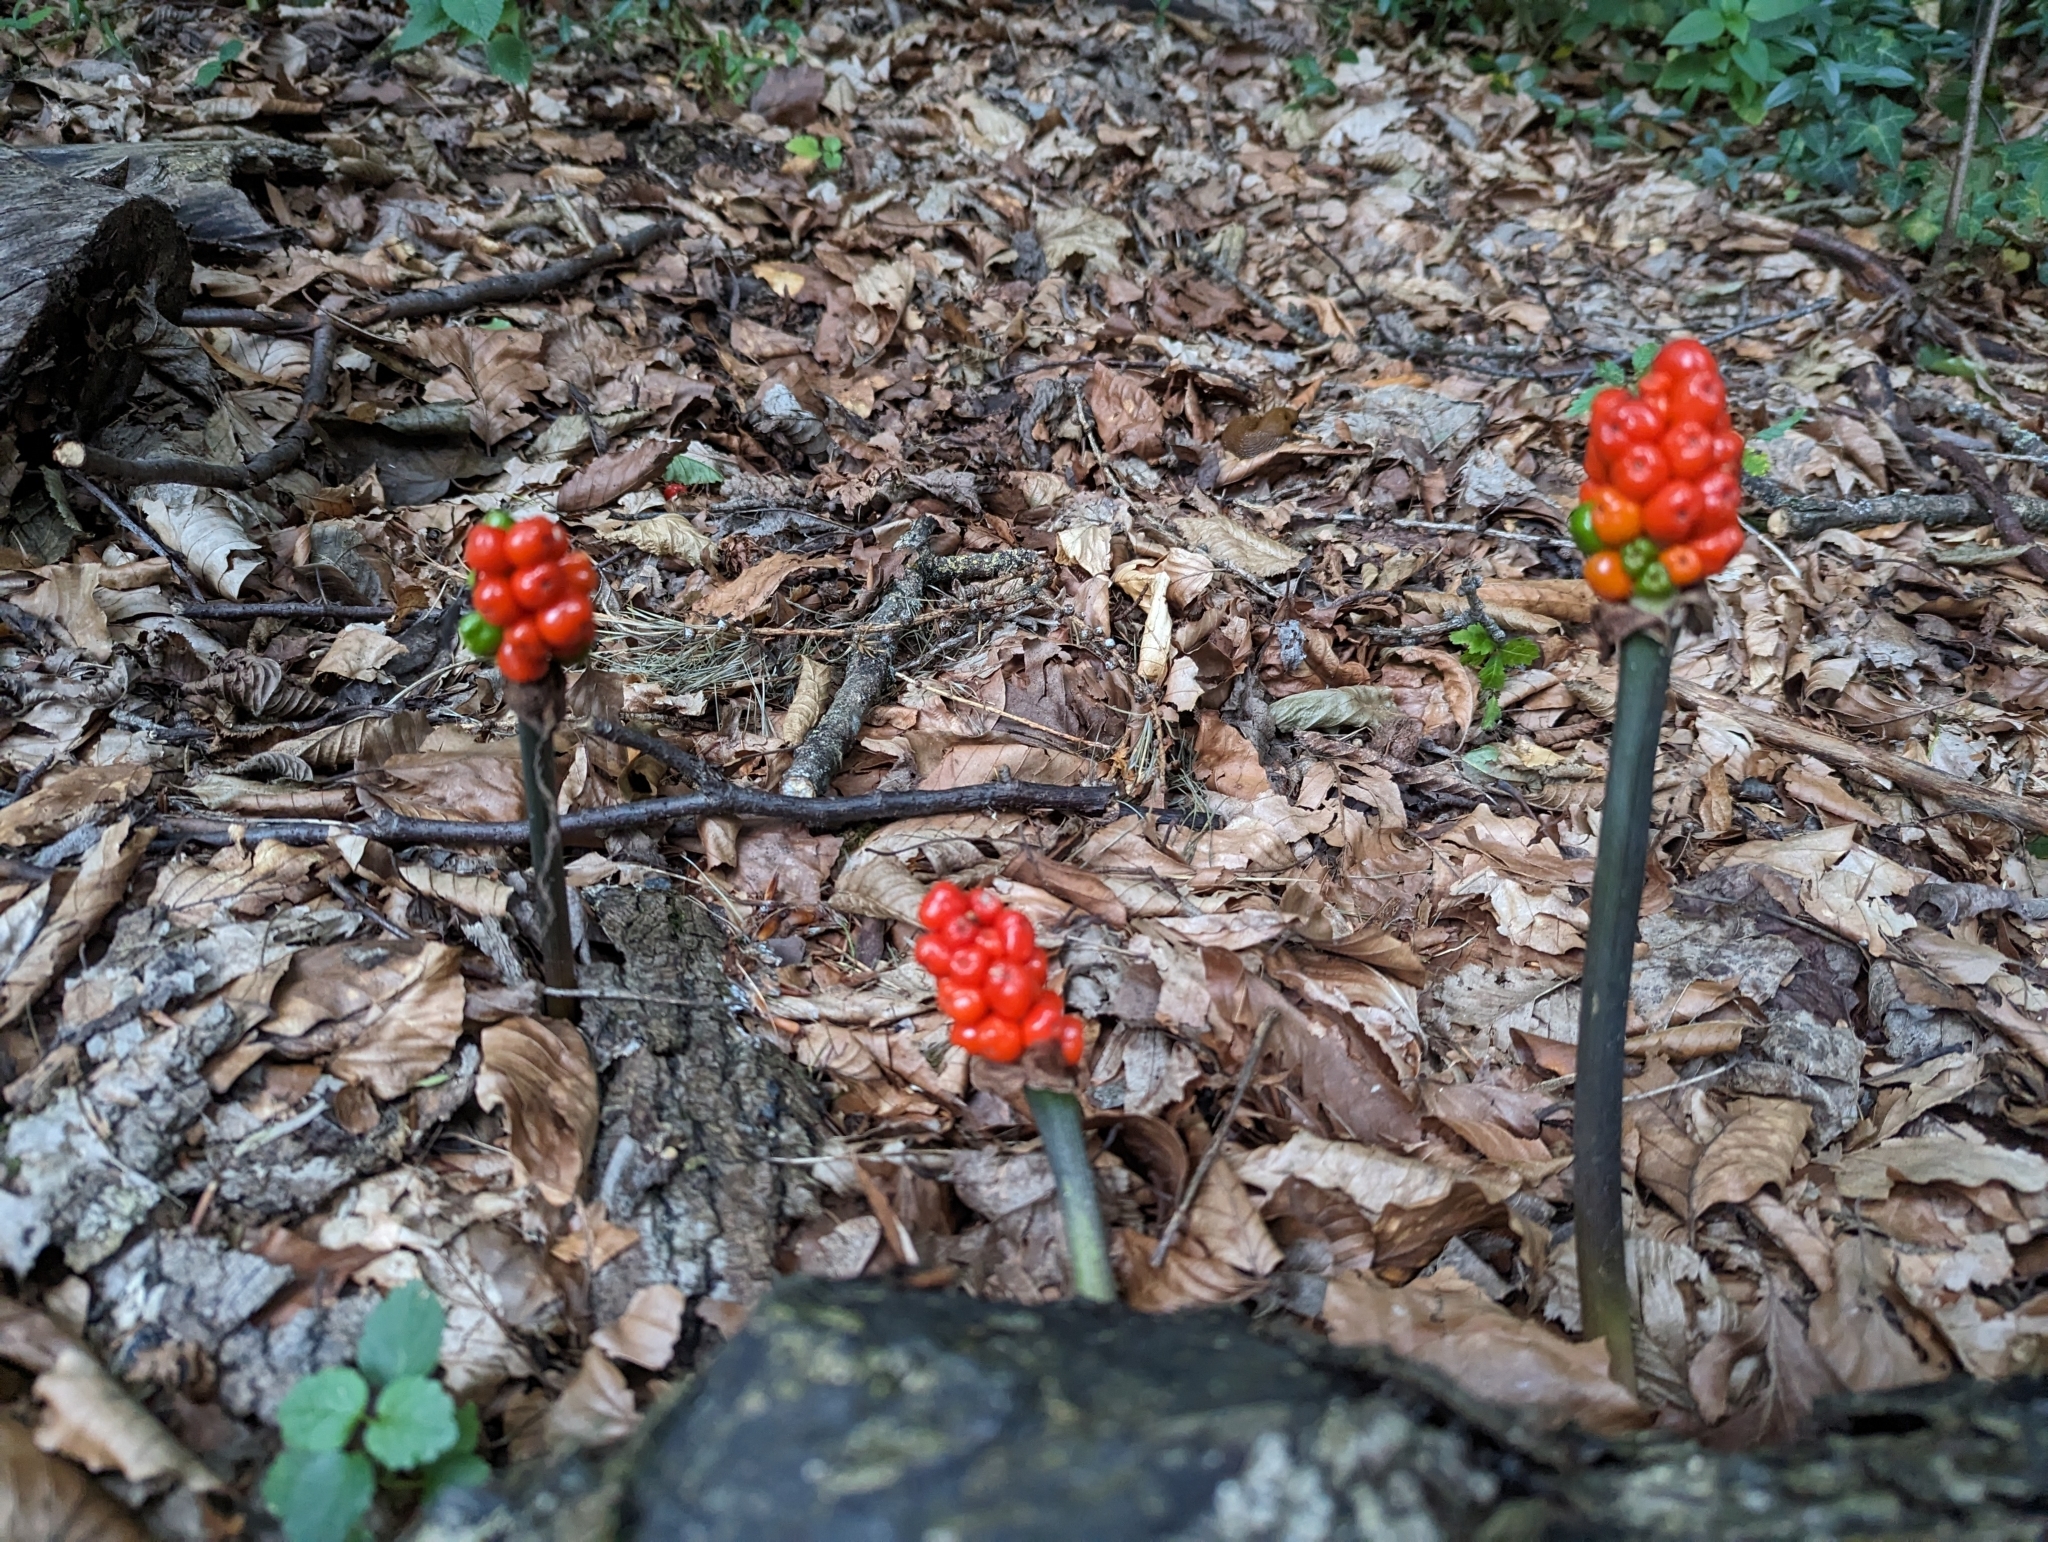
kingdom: Plantae
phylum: Tracheophyta
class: Liliopsida
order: Alismatales
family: Araceae
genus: Arum
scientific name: Arum maculatum
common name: Lords-and-ladies
